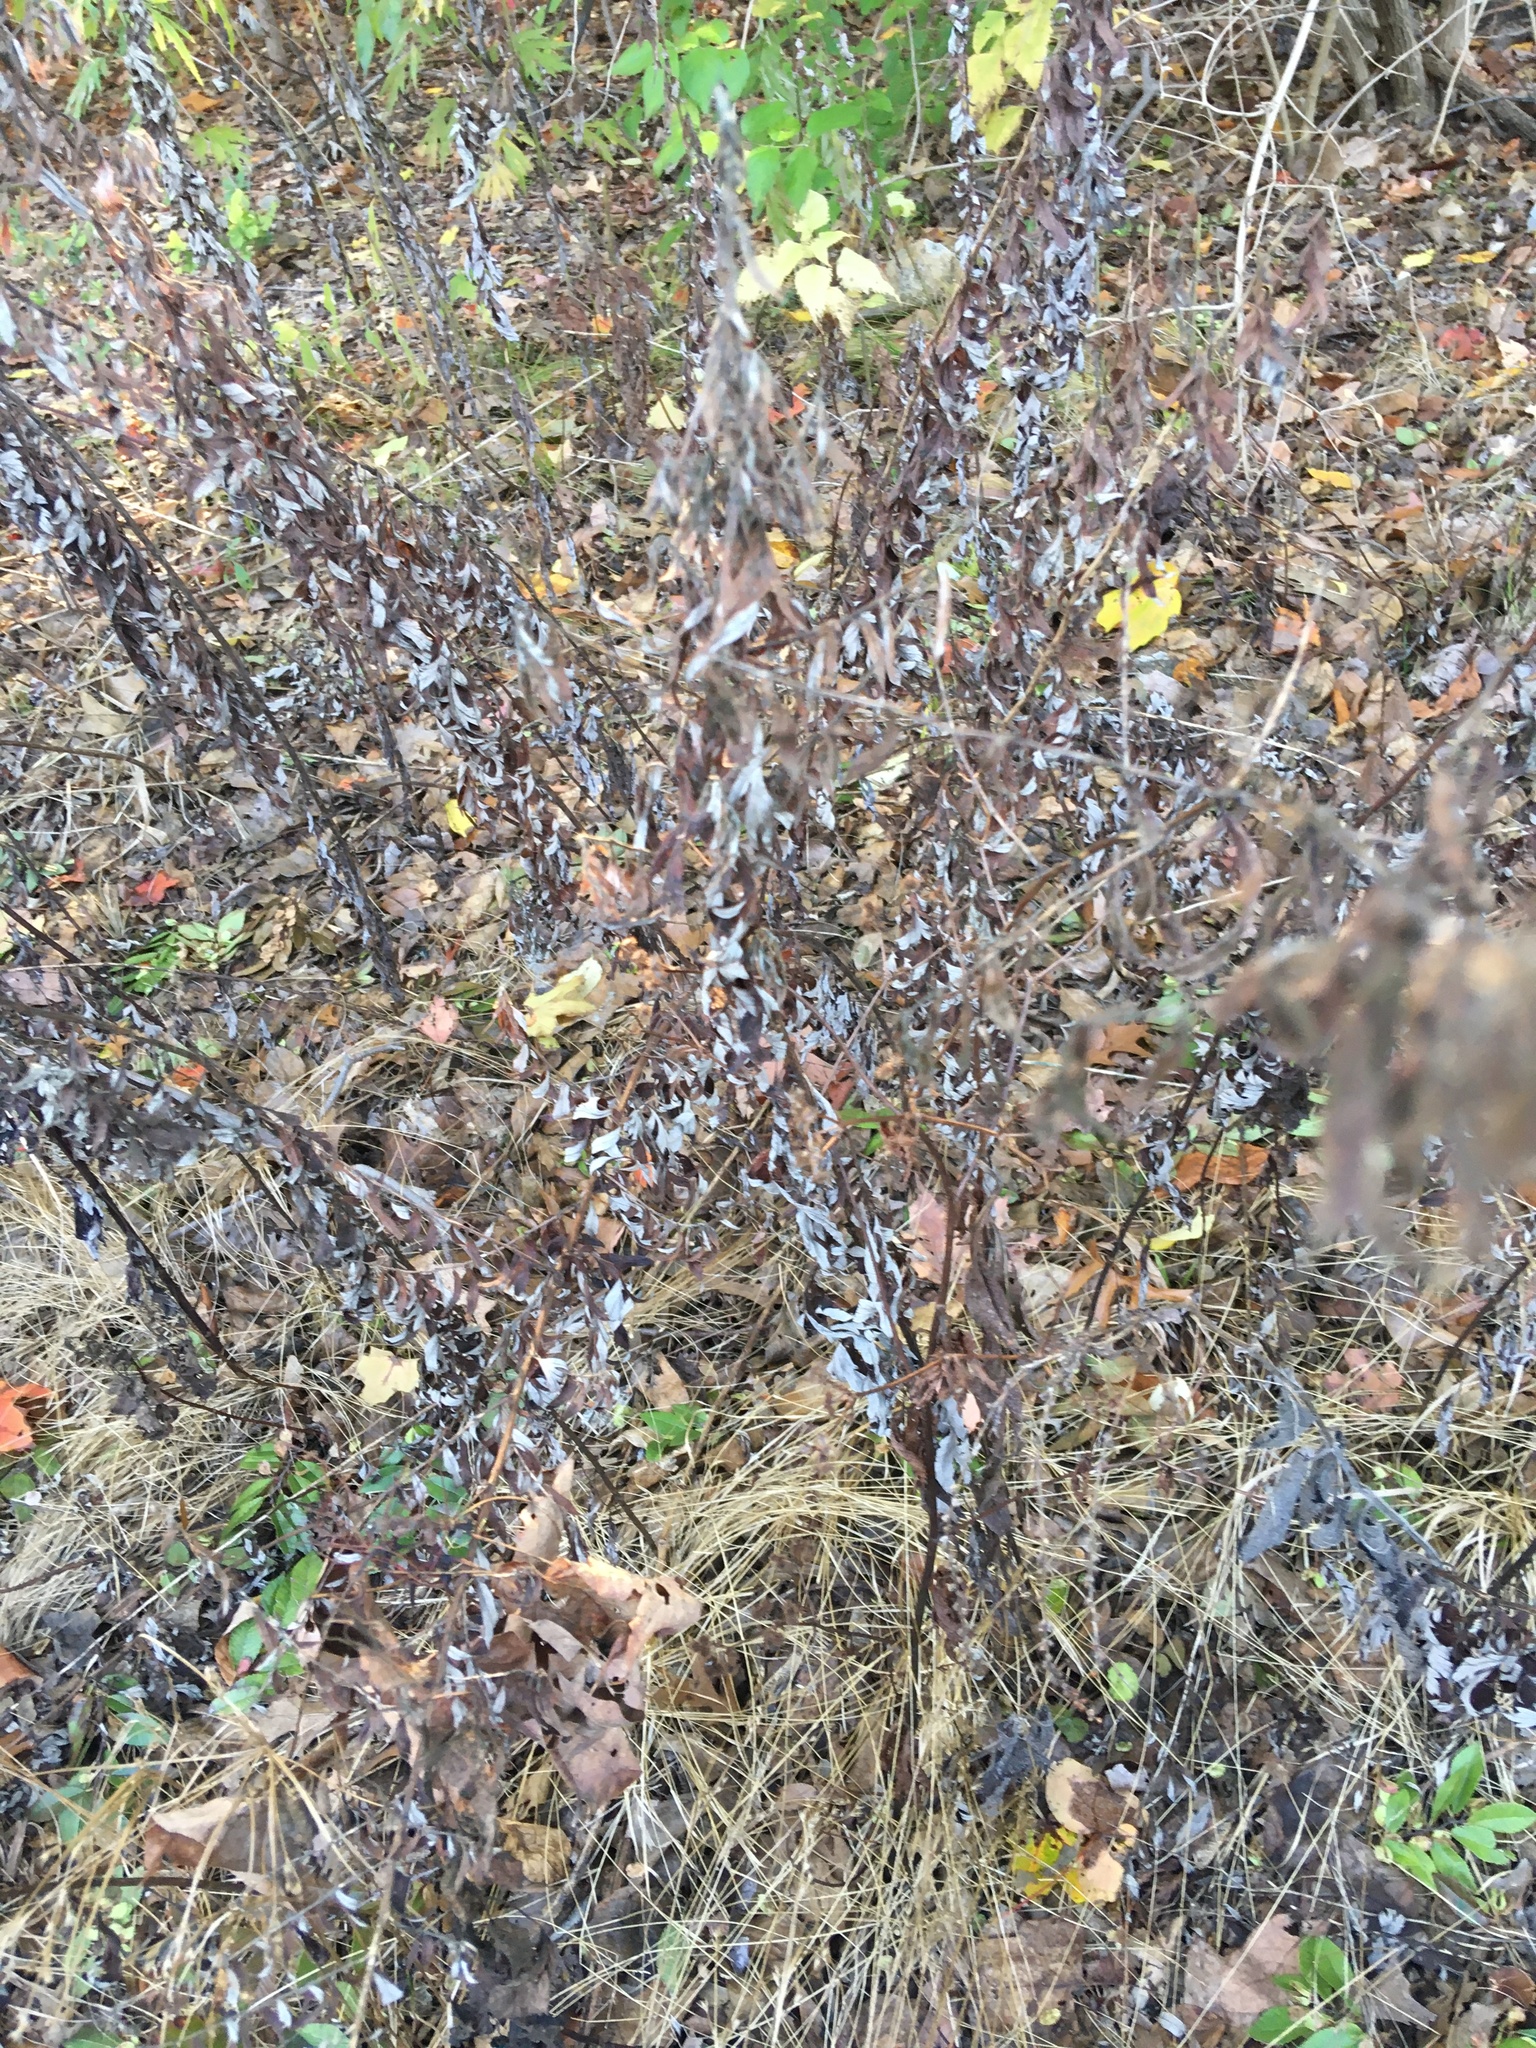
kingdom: Plantae
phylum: Tracheophyta
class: Magnoliopsida
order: Asterales
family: Asteraceae
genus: Artemisia
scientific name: Artemisia vulgaris
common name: Mugwort
